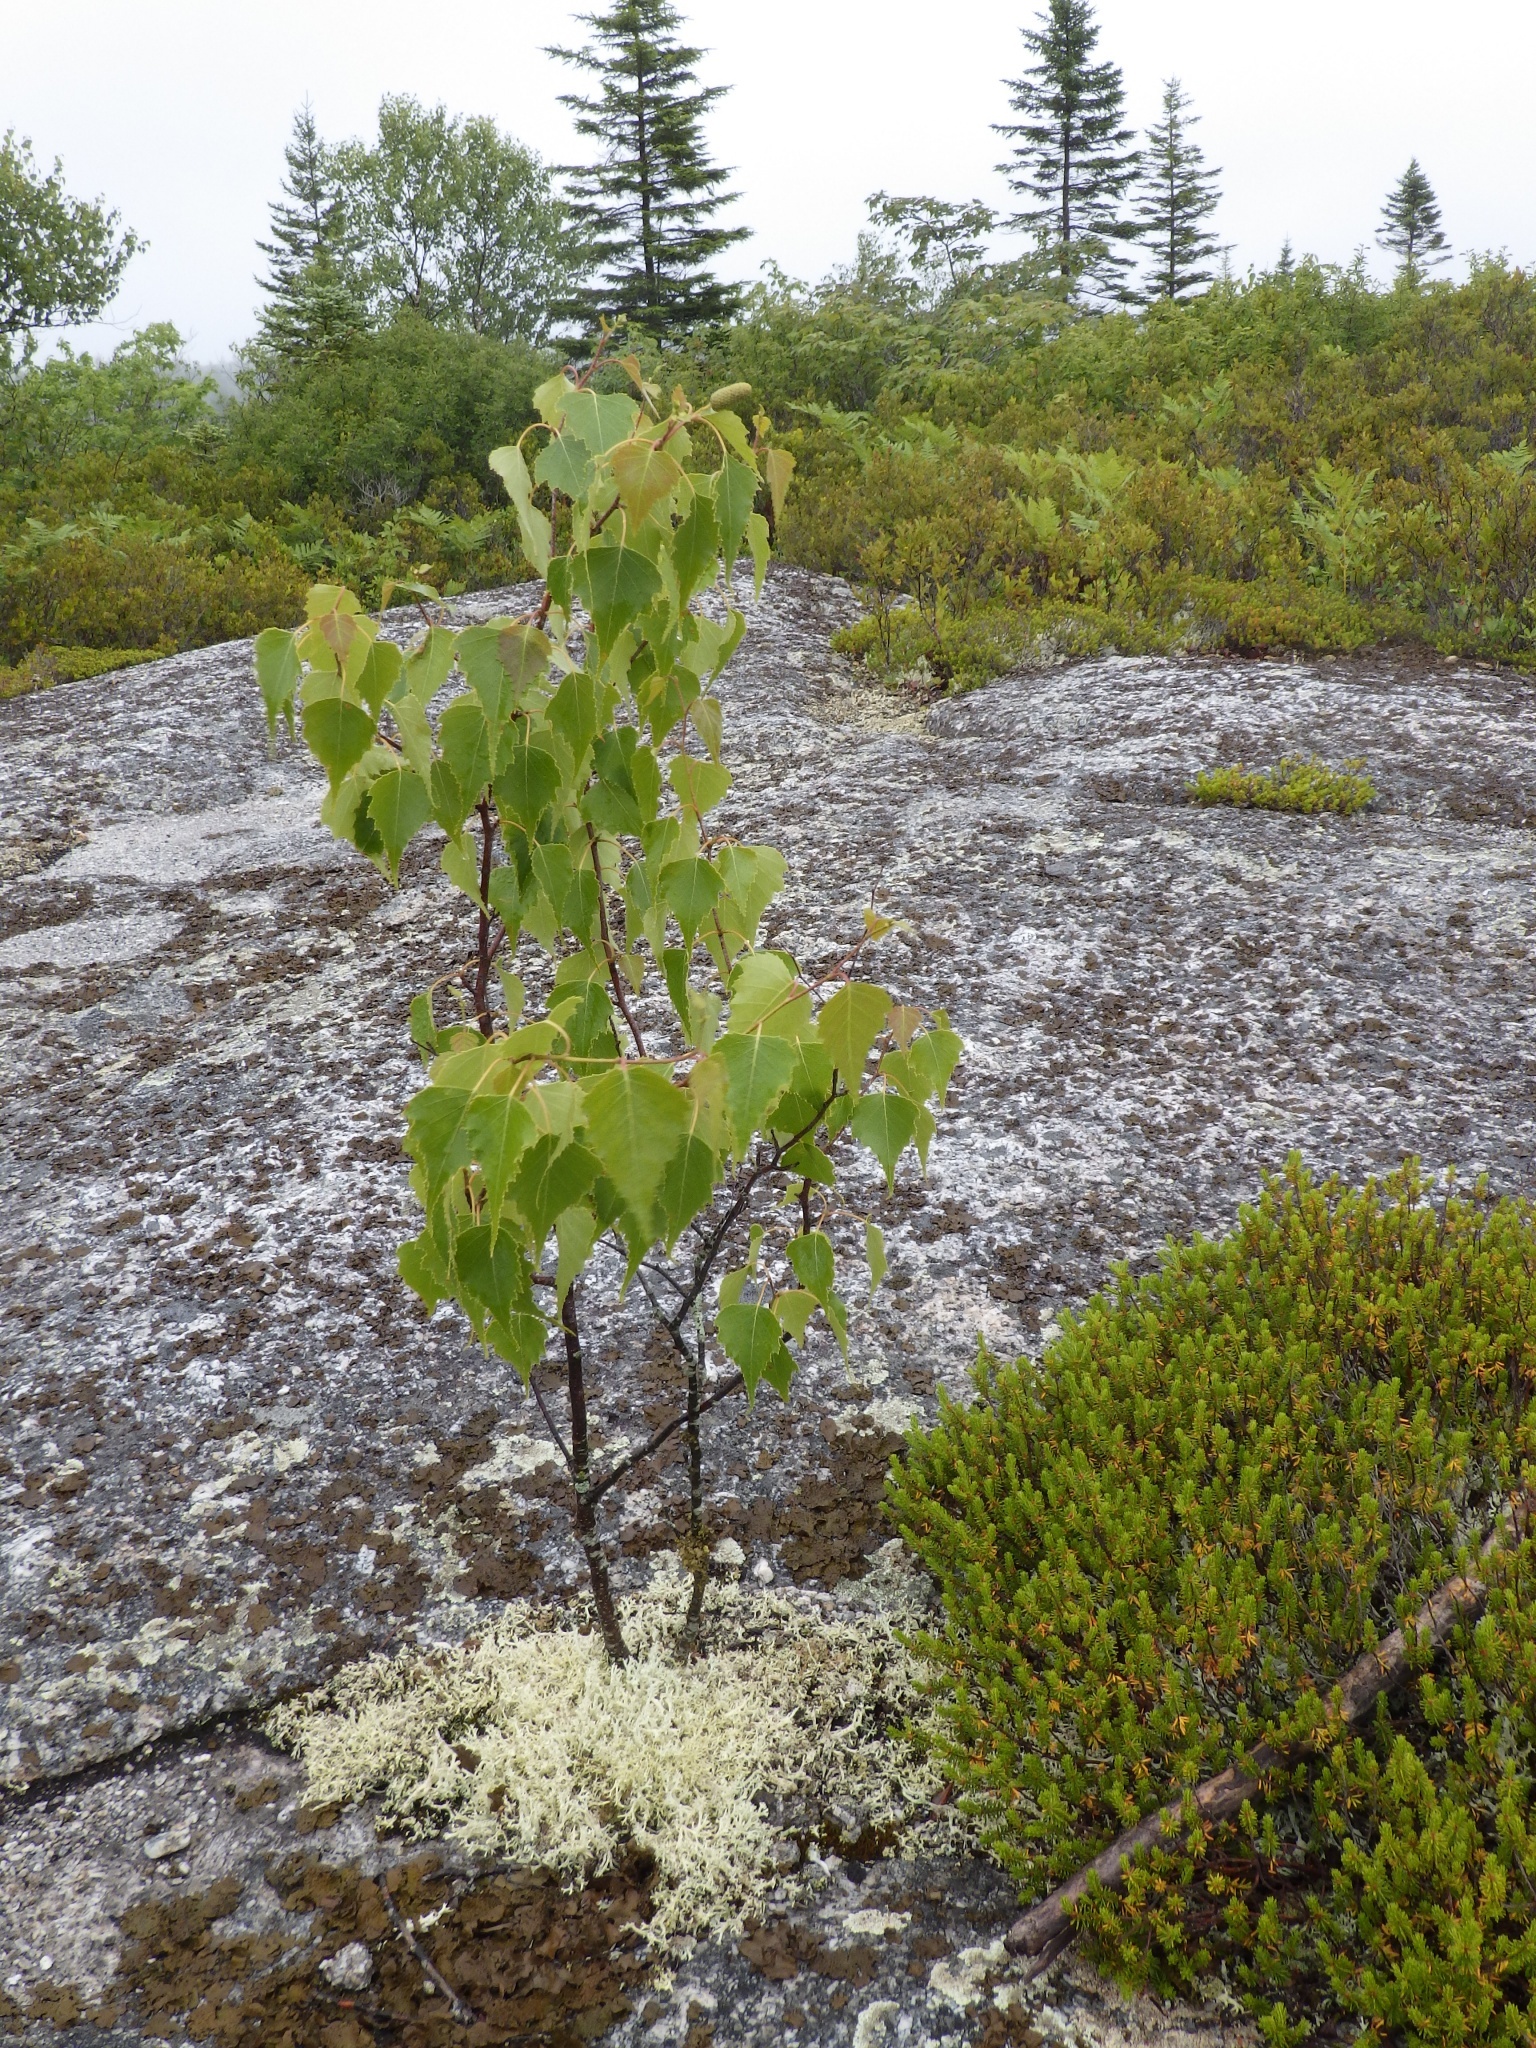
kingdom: Plantae
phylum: Tracheophyta
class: Magnoliopsida
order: Fagales
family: Betulaceae
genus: Betula
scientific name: Betula populifolia
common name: Fire birch
